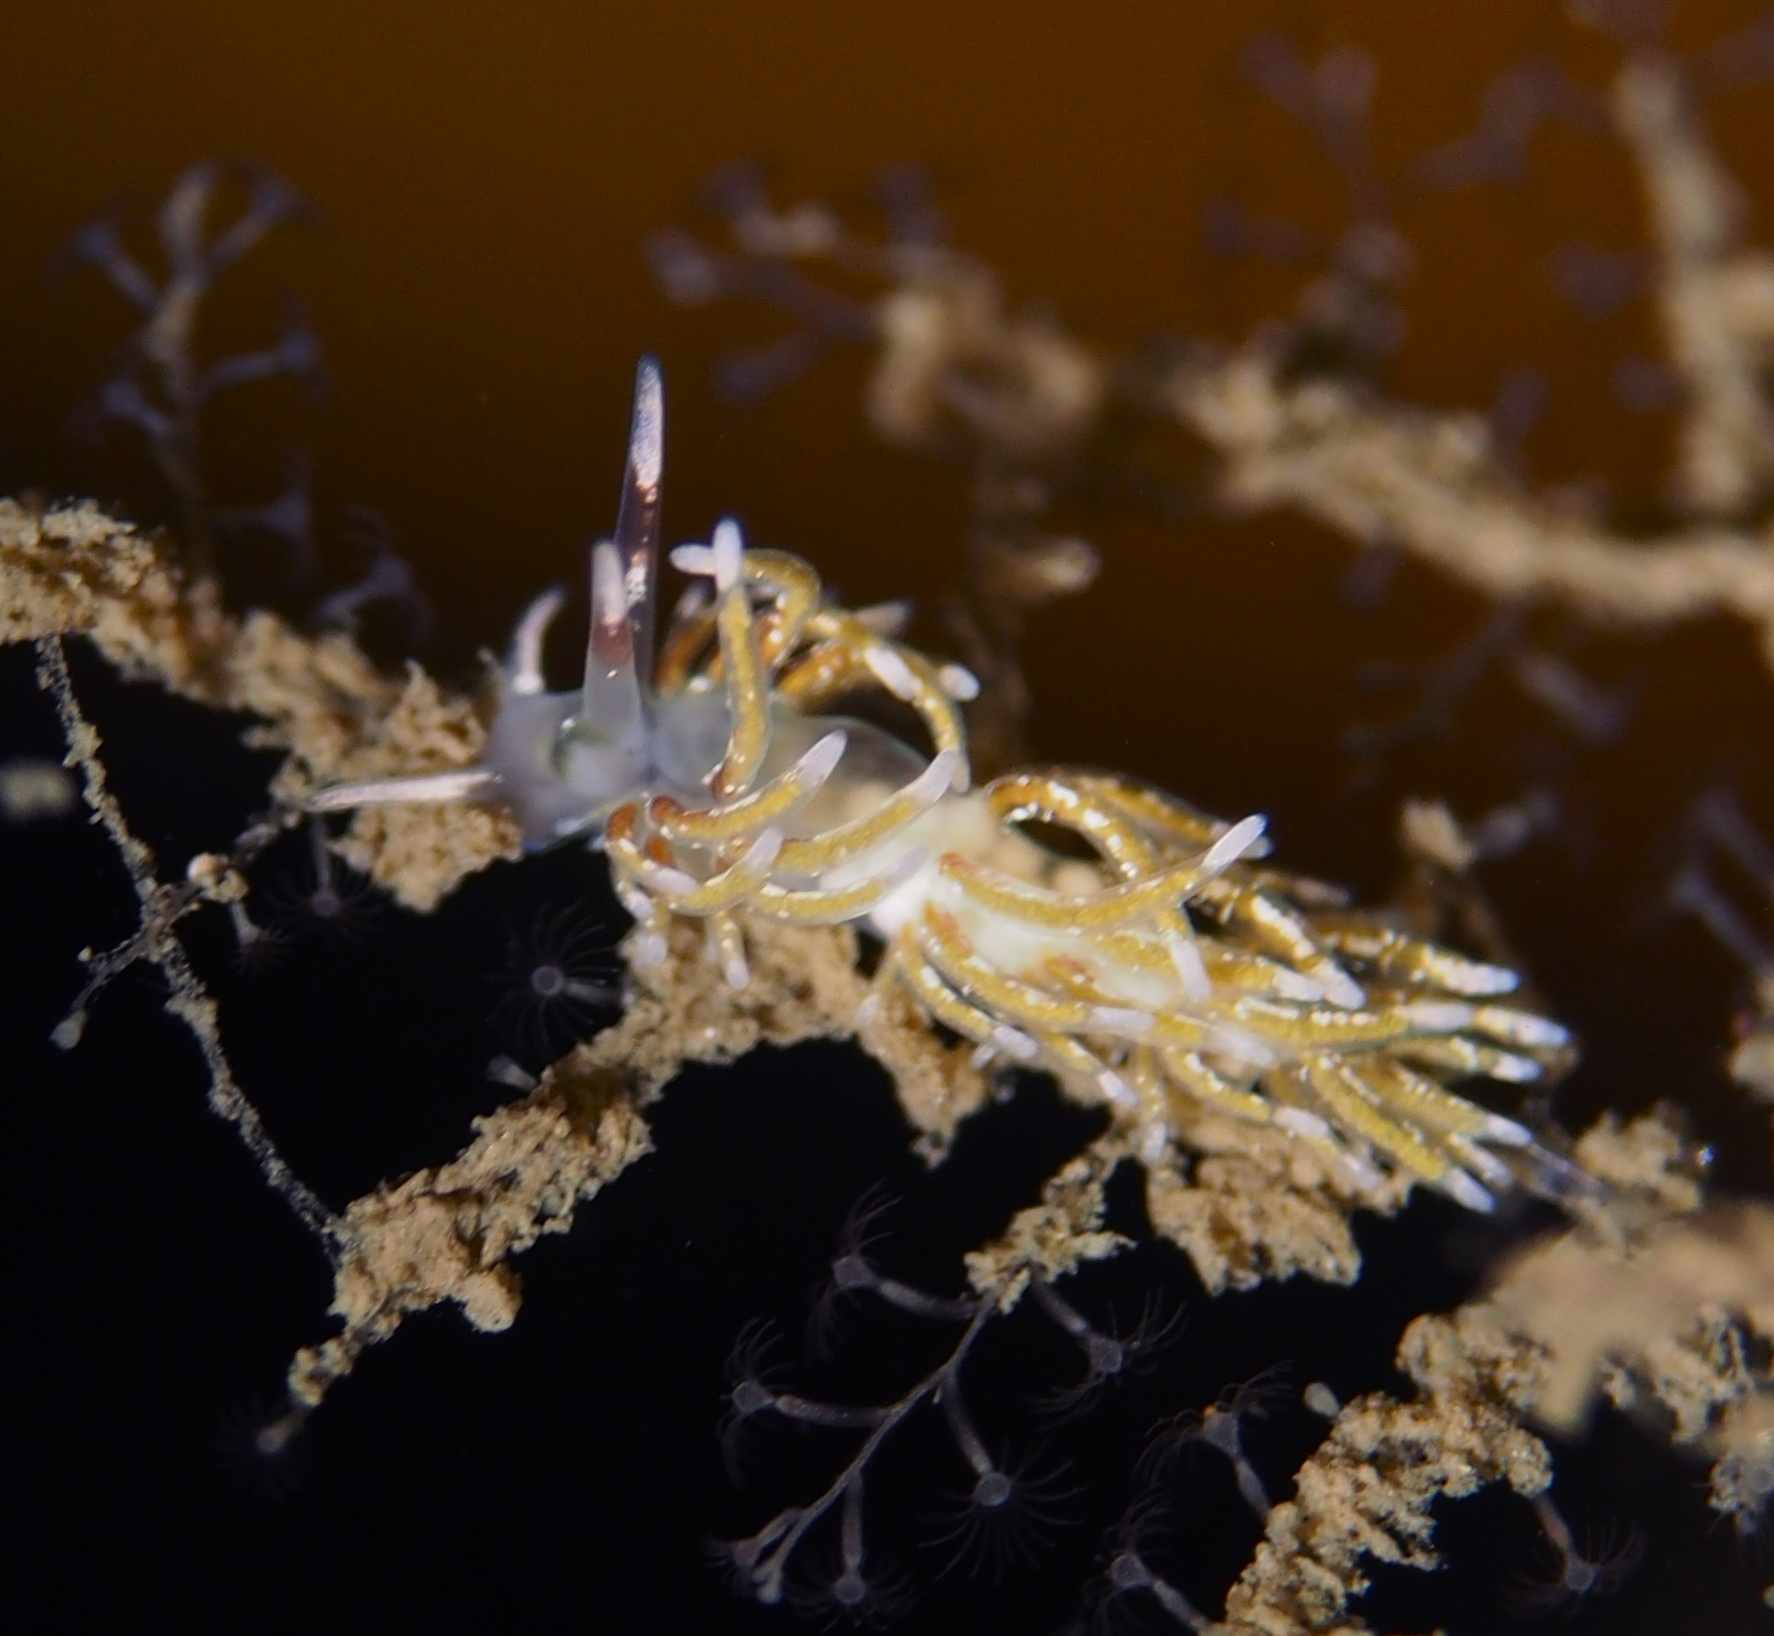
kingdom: Animalia
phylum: Mollusca
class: Gastropoda
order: Nudibranchia
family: Trinchesiidae
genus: Rubramoena
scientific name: Rubramoena rubescens
